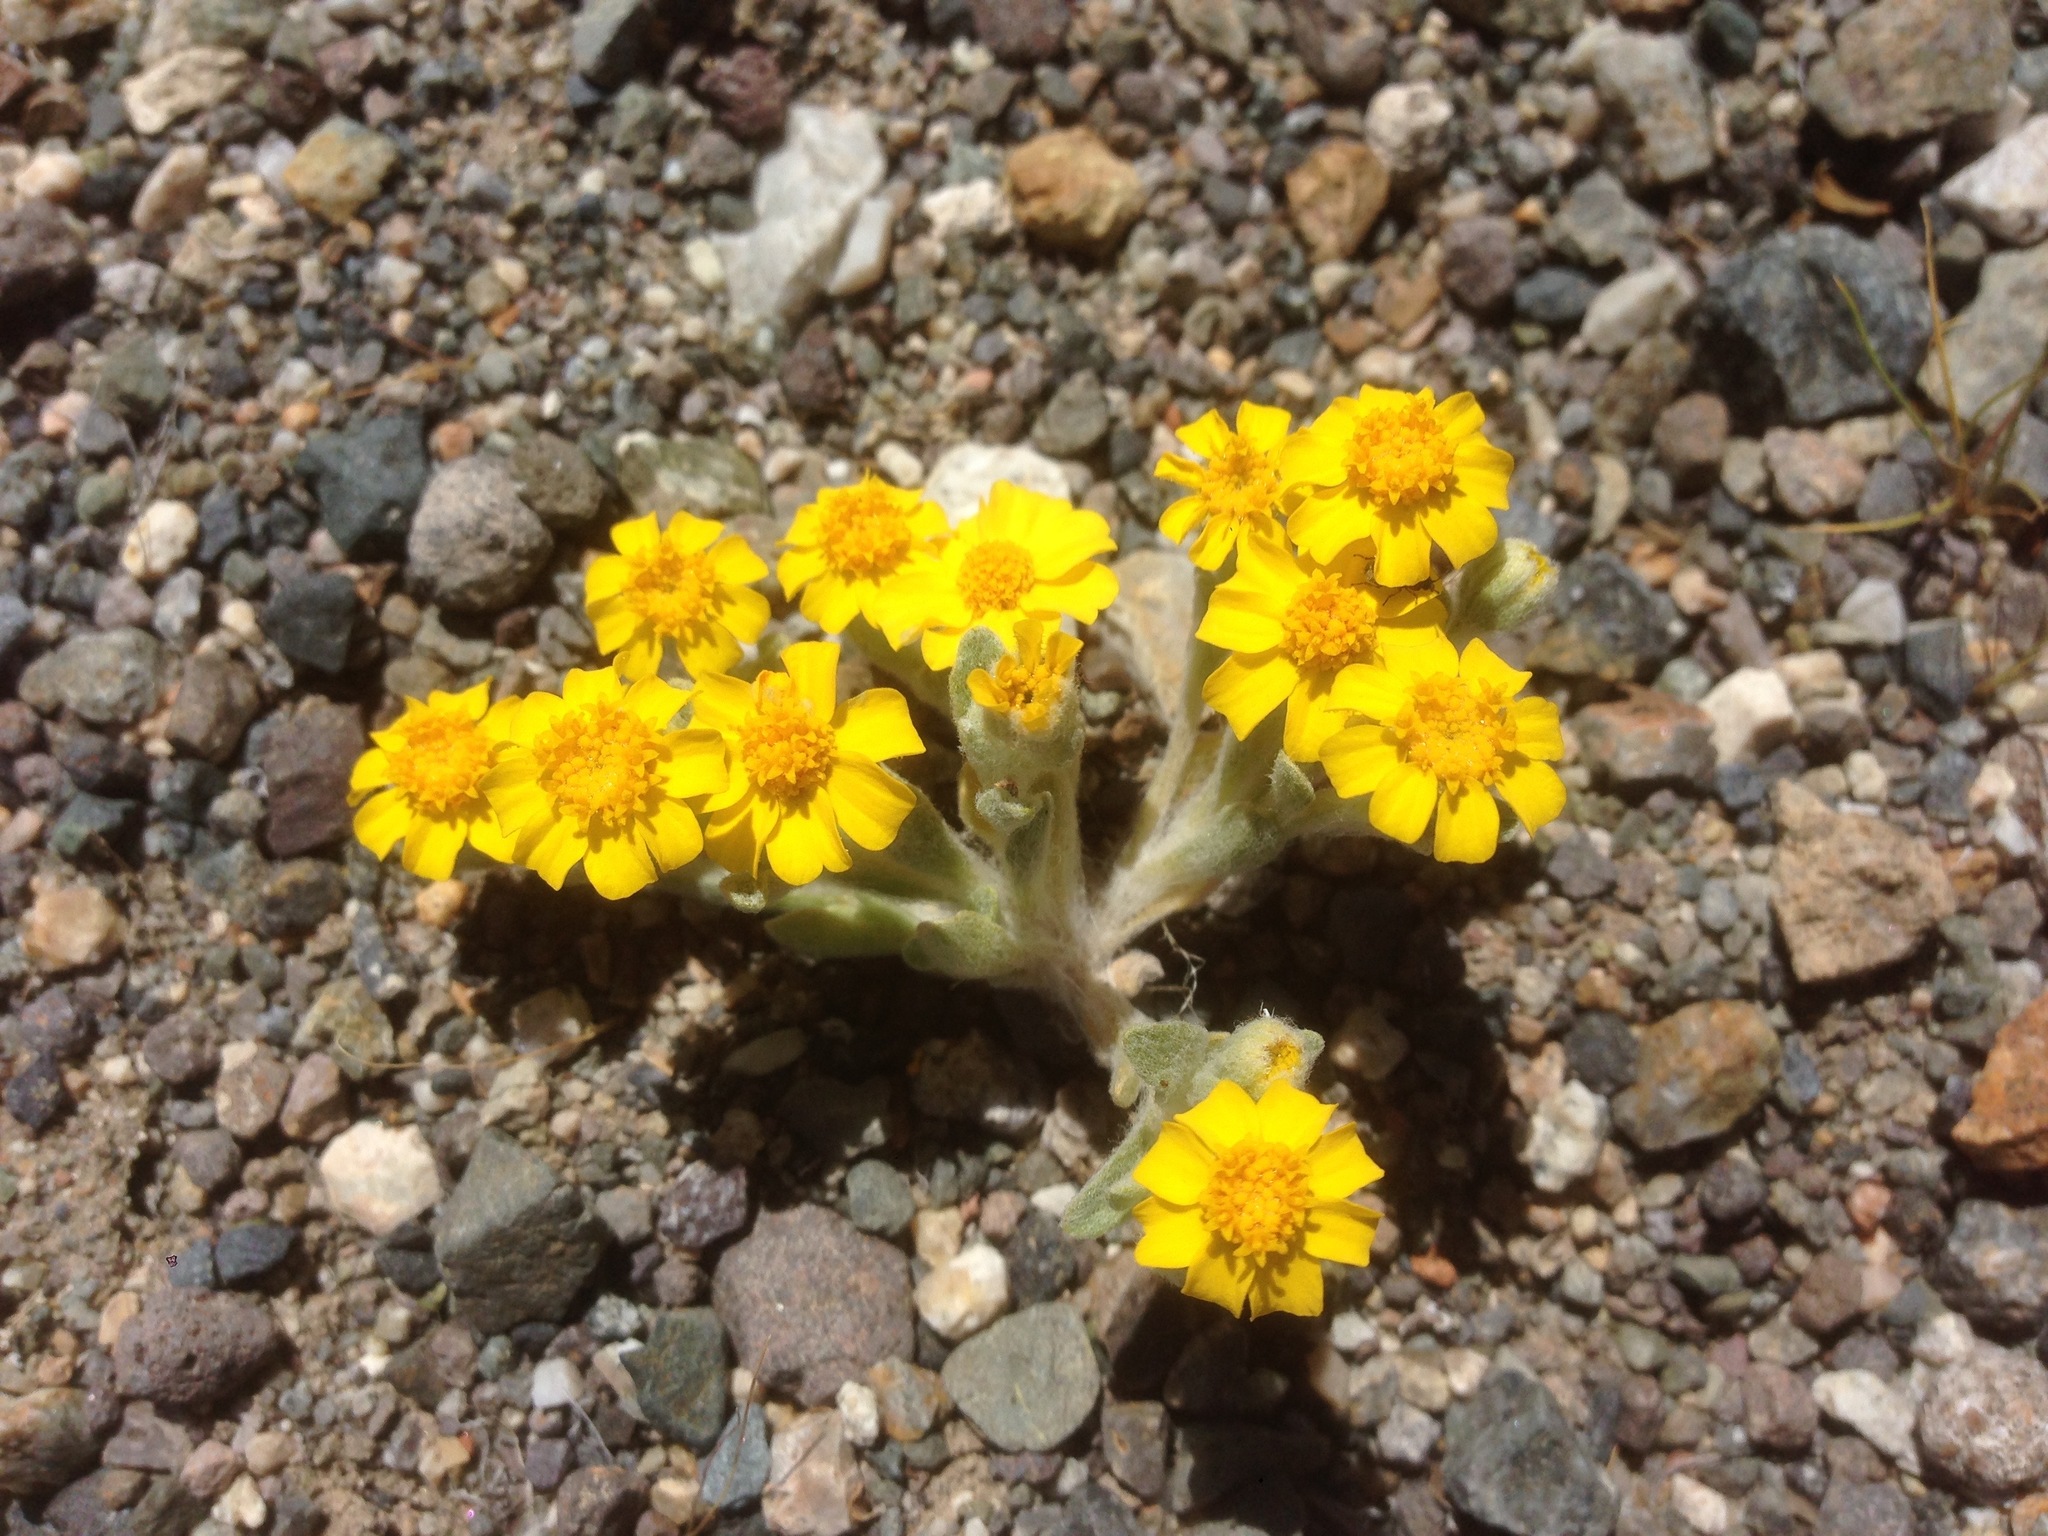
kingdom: Plantae
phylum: Tracheophyta
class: Magnoliopsida
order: Asterales
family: Asteraceae
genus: Eriophyllum
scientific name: Eriophyllum wallacei
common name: Wallace's woolly daisy
